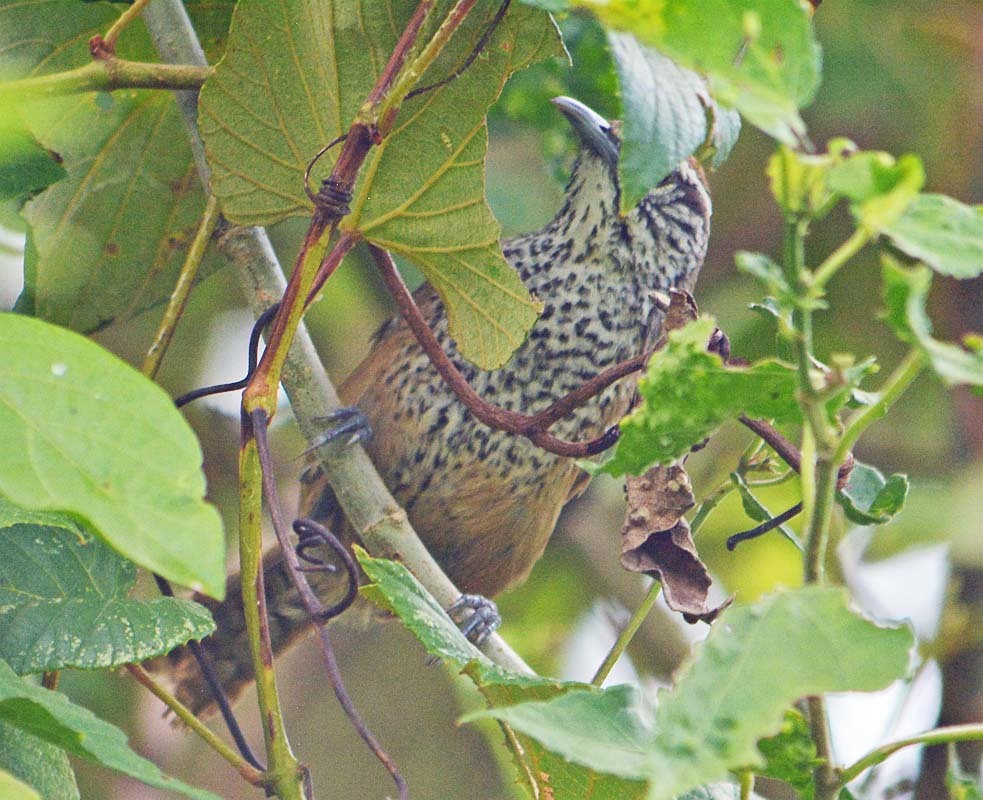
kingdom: Animalia
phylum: Chordata
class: Aves
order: Passeriformes
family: Troglodytidae
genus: Campylorhynchus
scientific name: Campylorhynchus zonatus
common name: Band-backed wren
